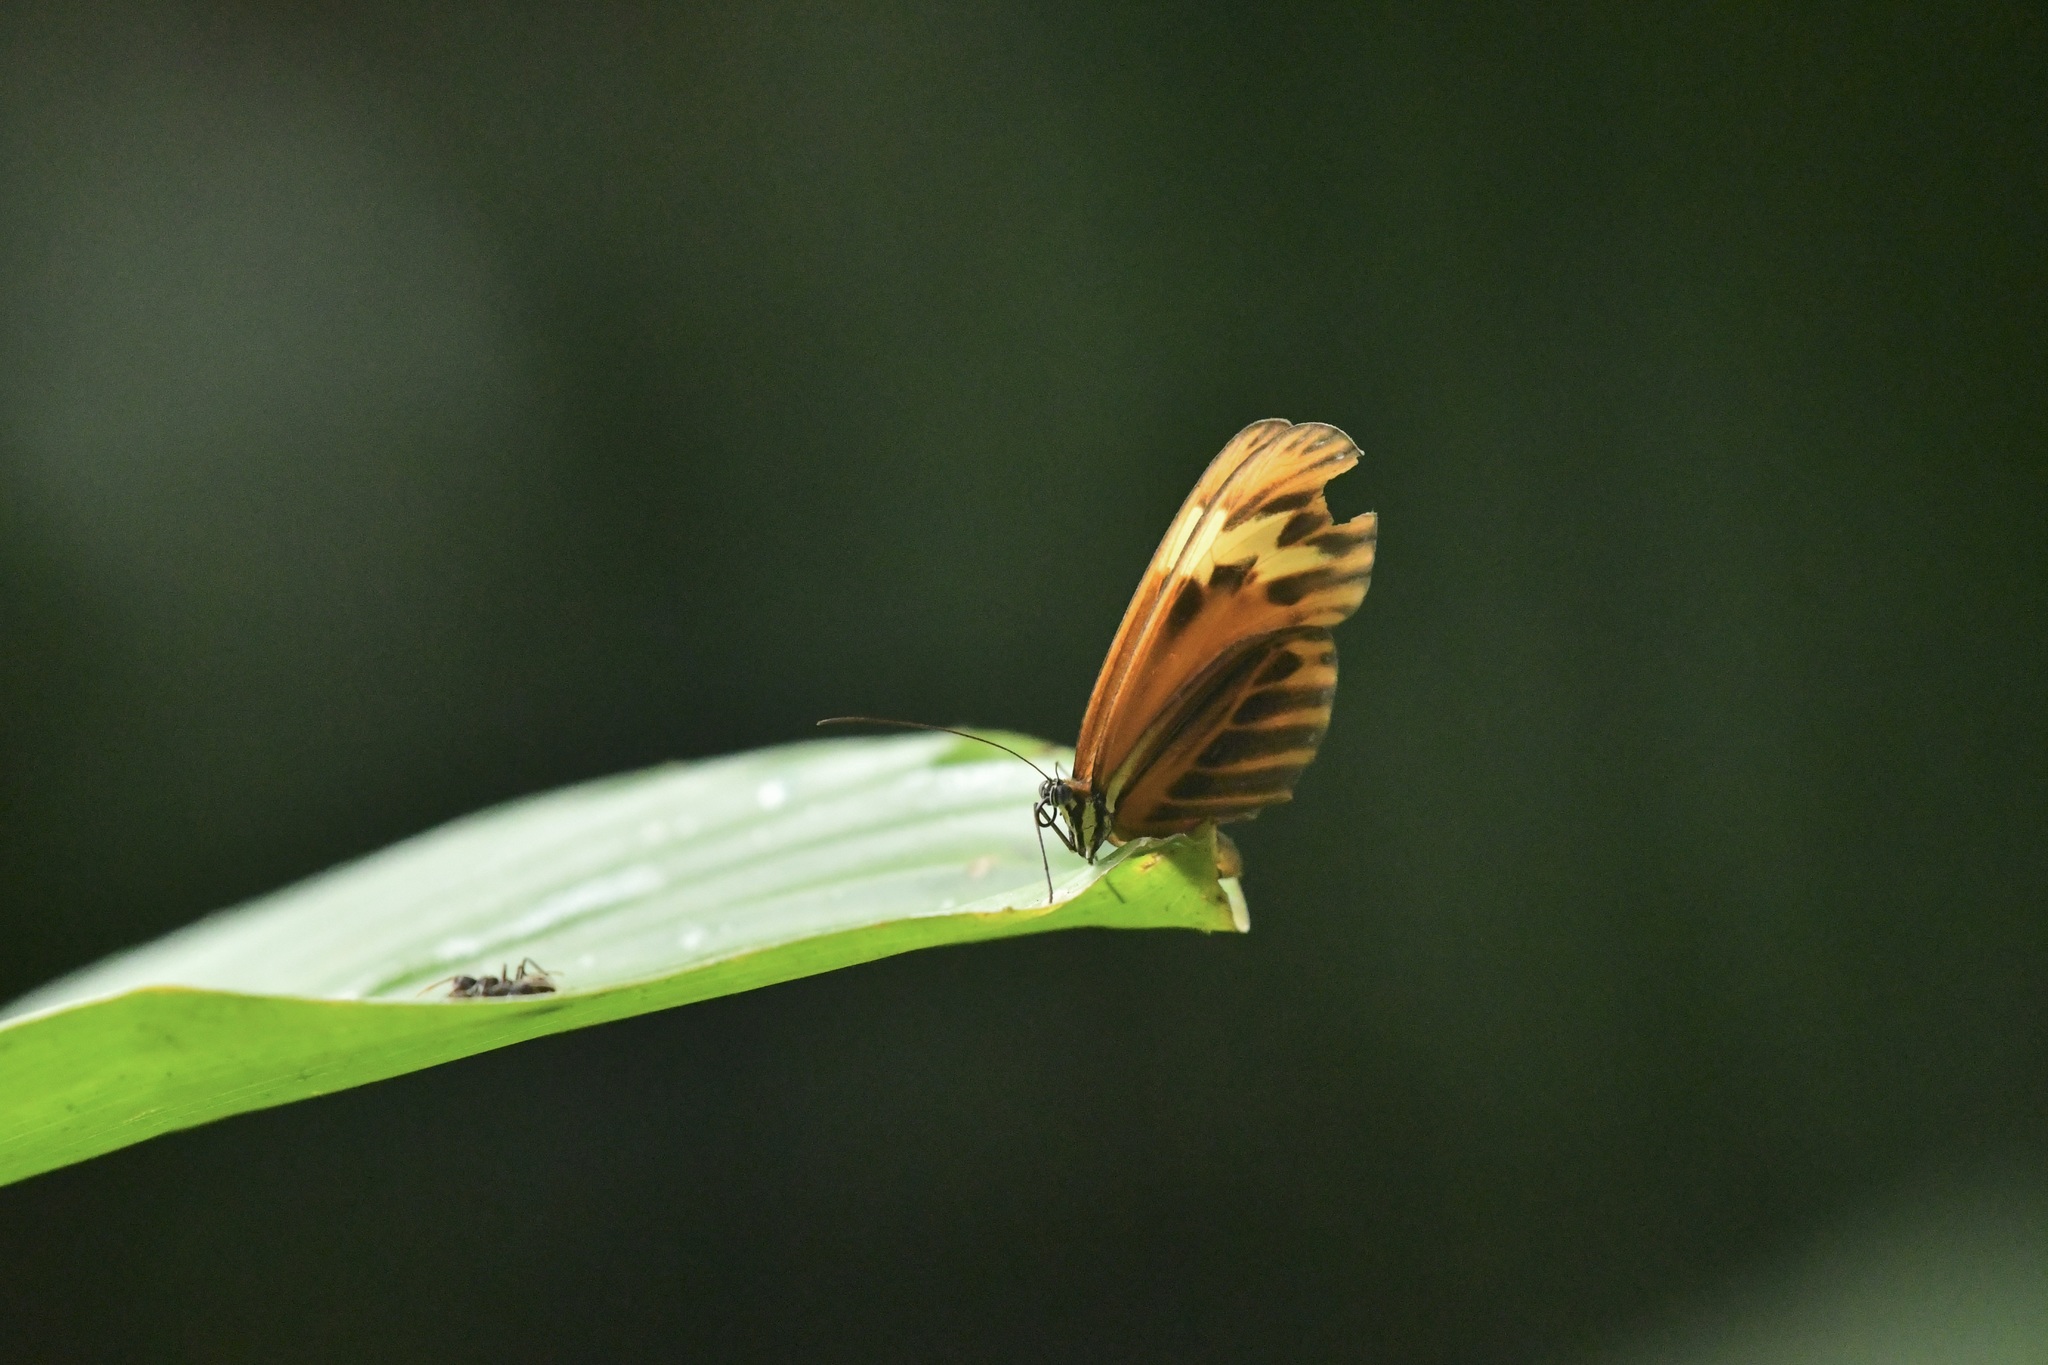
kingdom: Animalia
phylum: Arthropoda
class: Insecta
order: Lepidoptera
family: Nymphalidae
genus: Sais
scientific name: Sais rosalia
